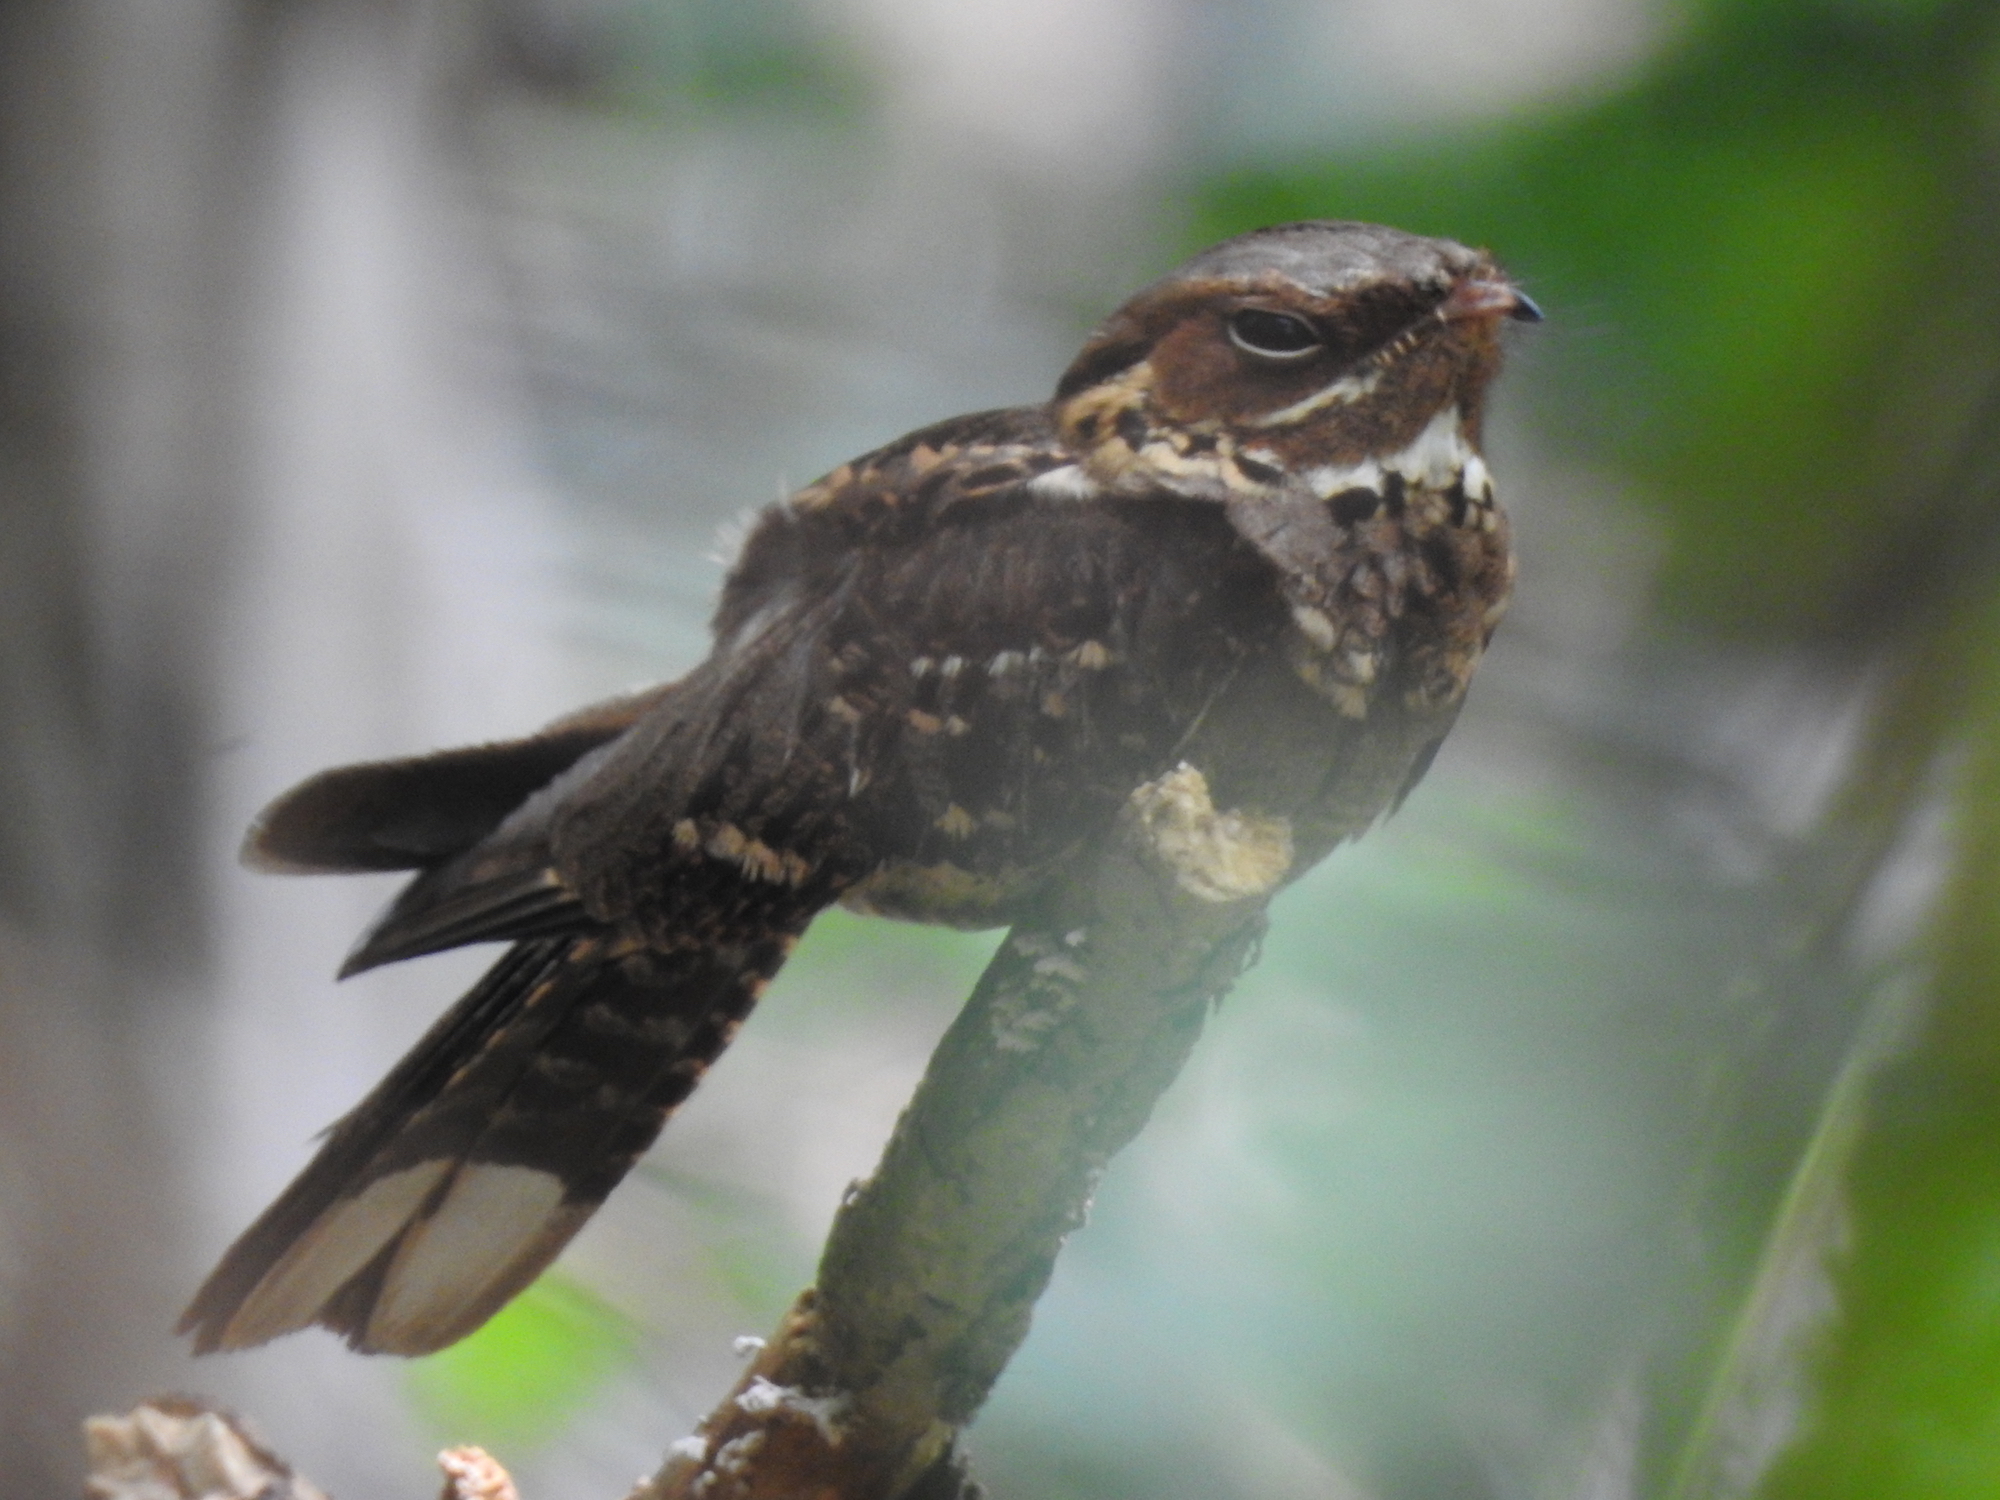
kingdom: Animalia
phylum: Chordata
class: Aves
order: Caprimulgiformes
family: Caprimulgidae
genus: Caprimulgus
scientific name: Caprimulgus macrurus
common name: Large-tailed nightjar
